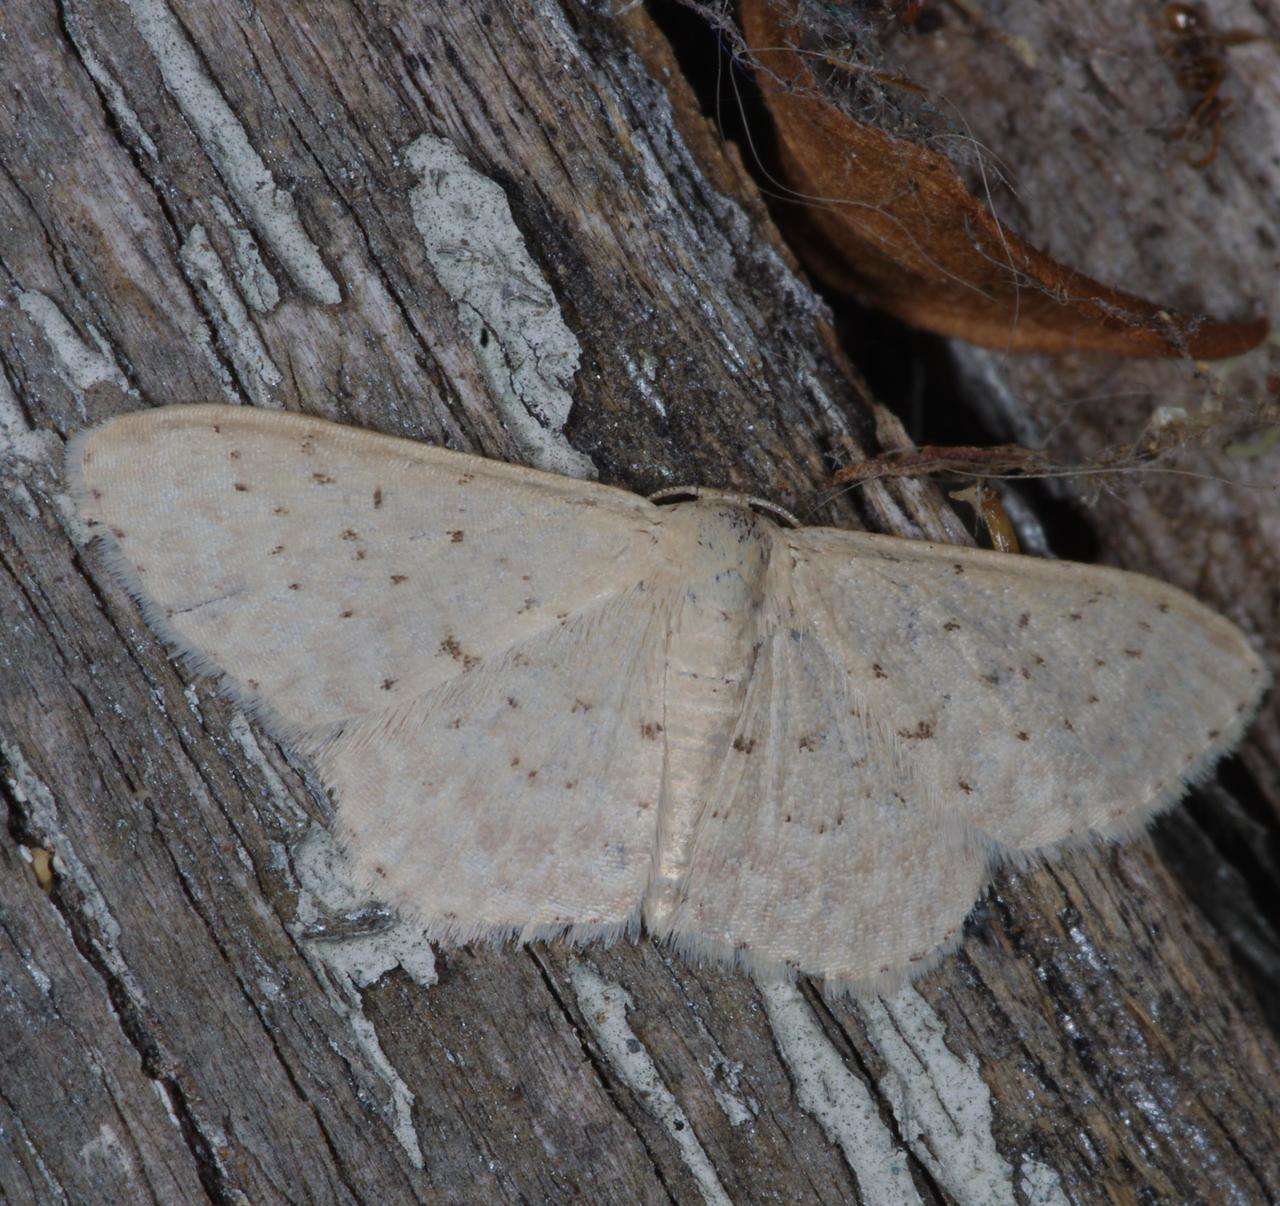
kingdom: Animalia
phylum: Arthropoda
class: Insecta
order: Lepidoptera
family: Geometridae
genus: Idaea
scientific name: Idaea philocosma
